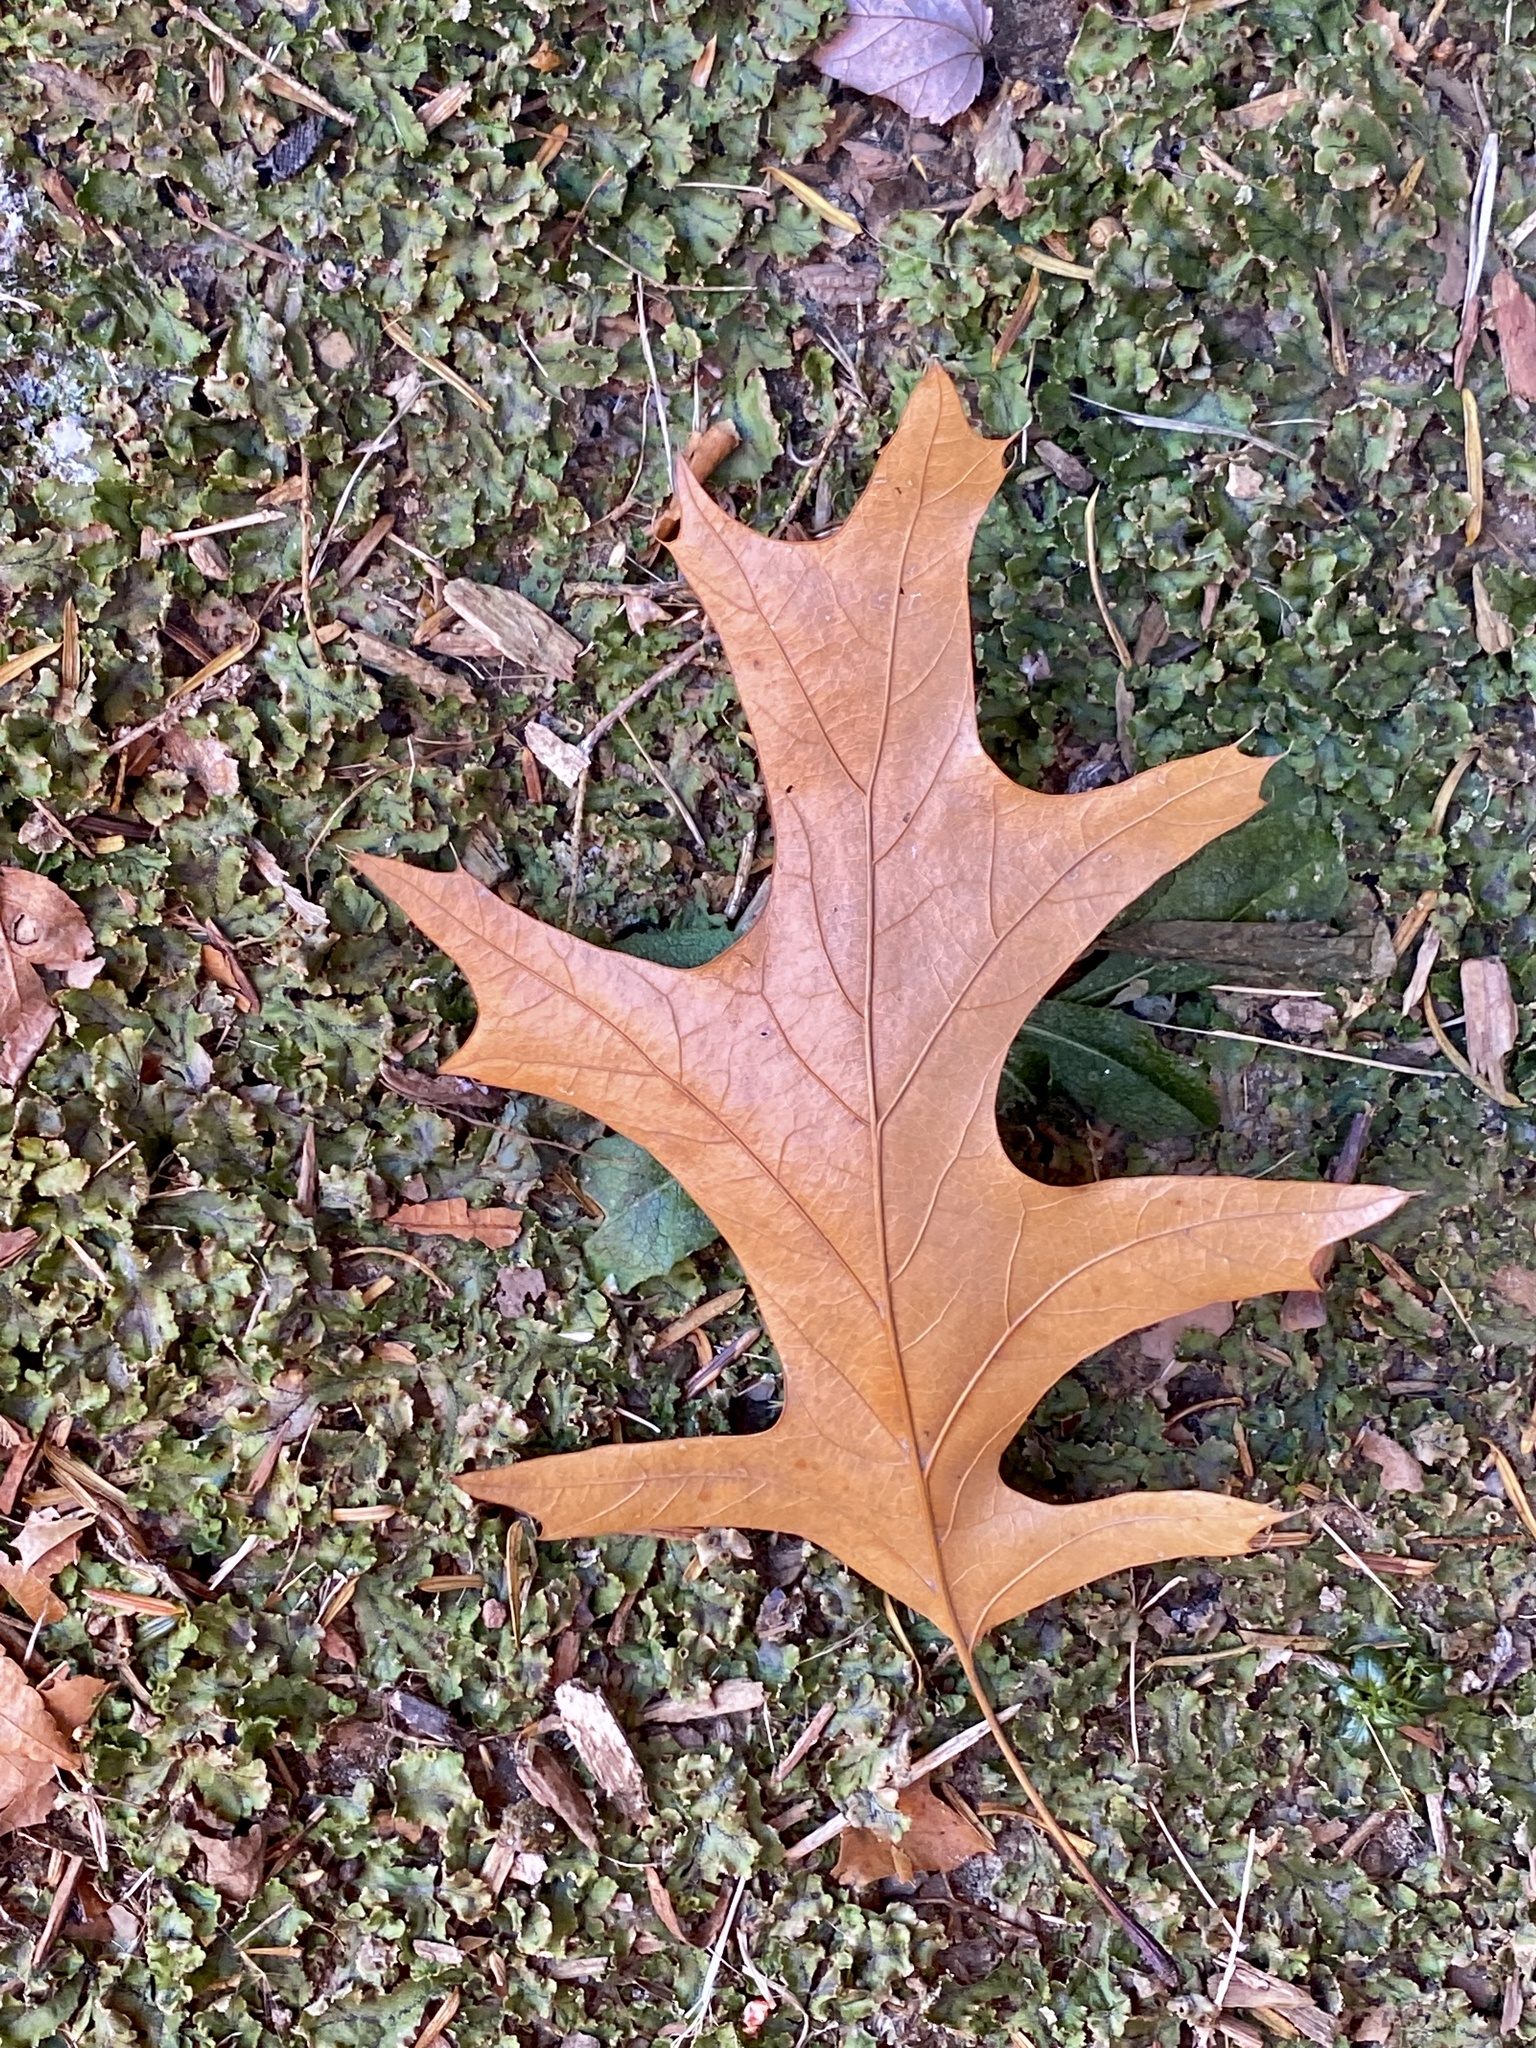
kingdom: Plantae
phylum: Tracheophyta
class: Magnoliopsida
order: Fagales
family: Fagaceae
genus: Quercus
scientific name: Quercus palustris
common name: Pin oak
